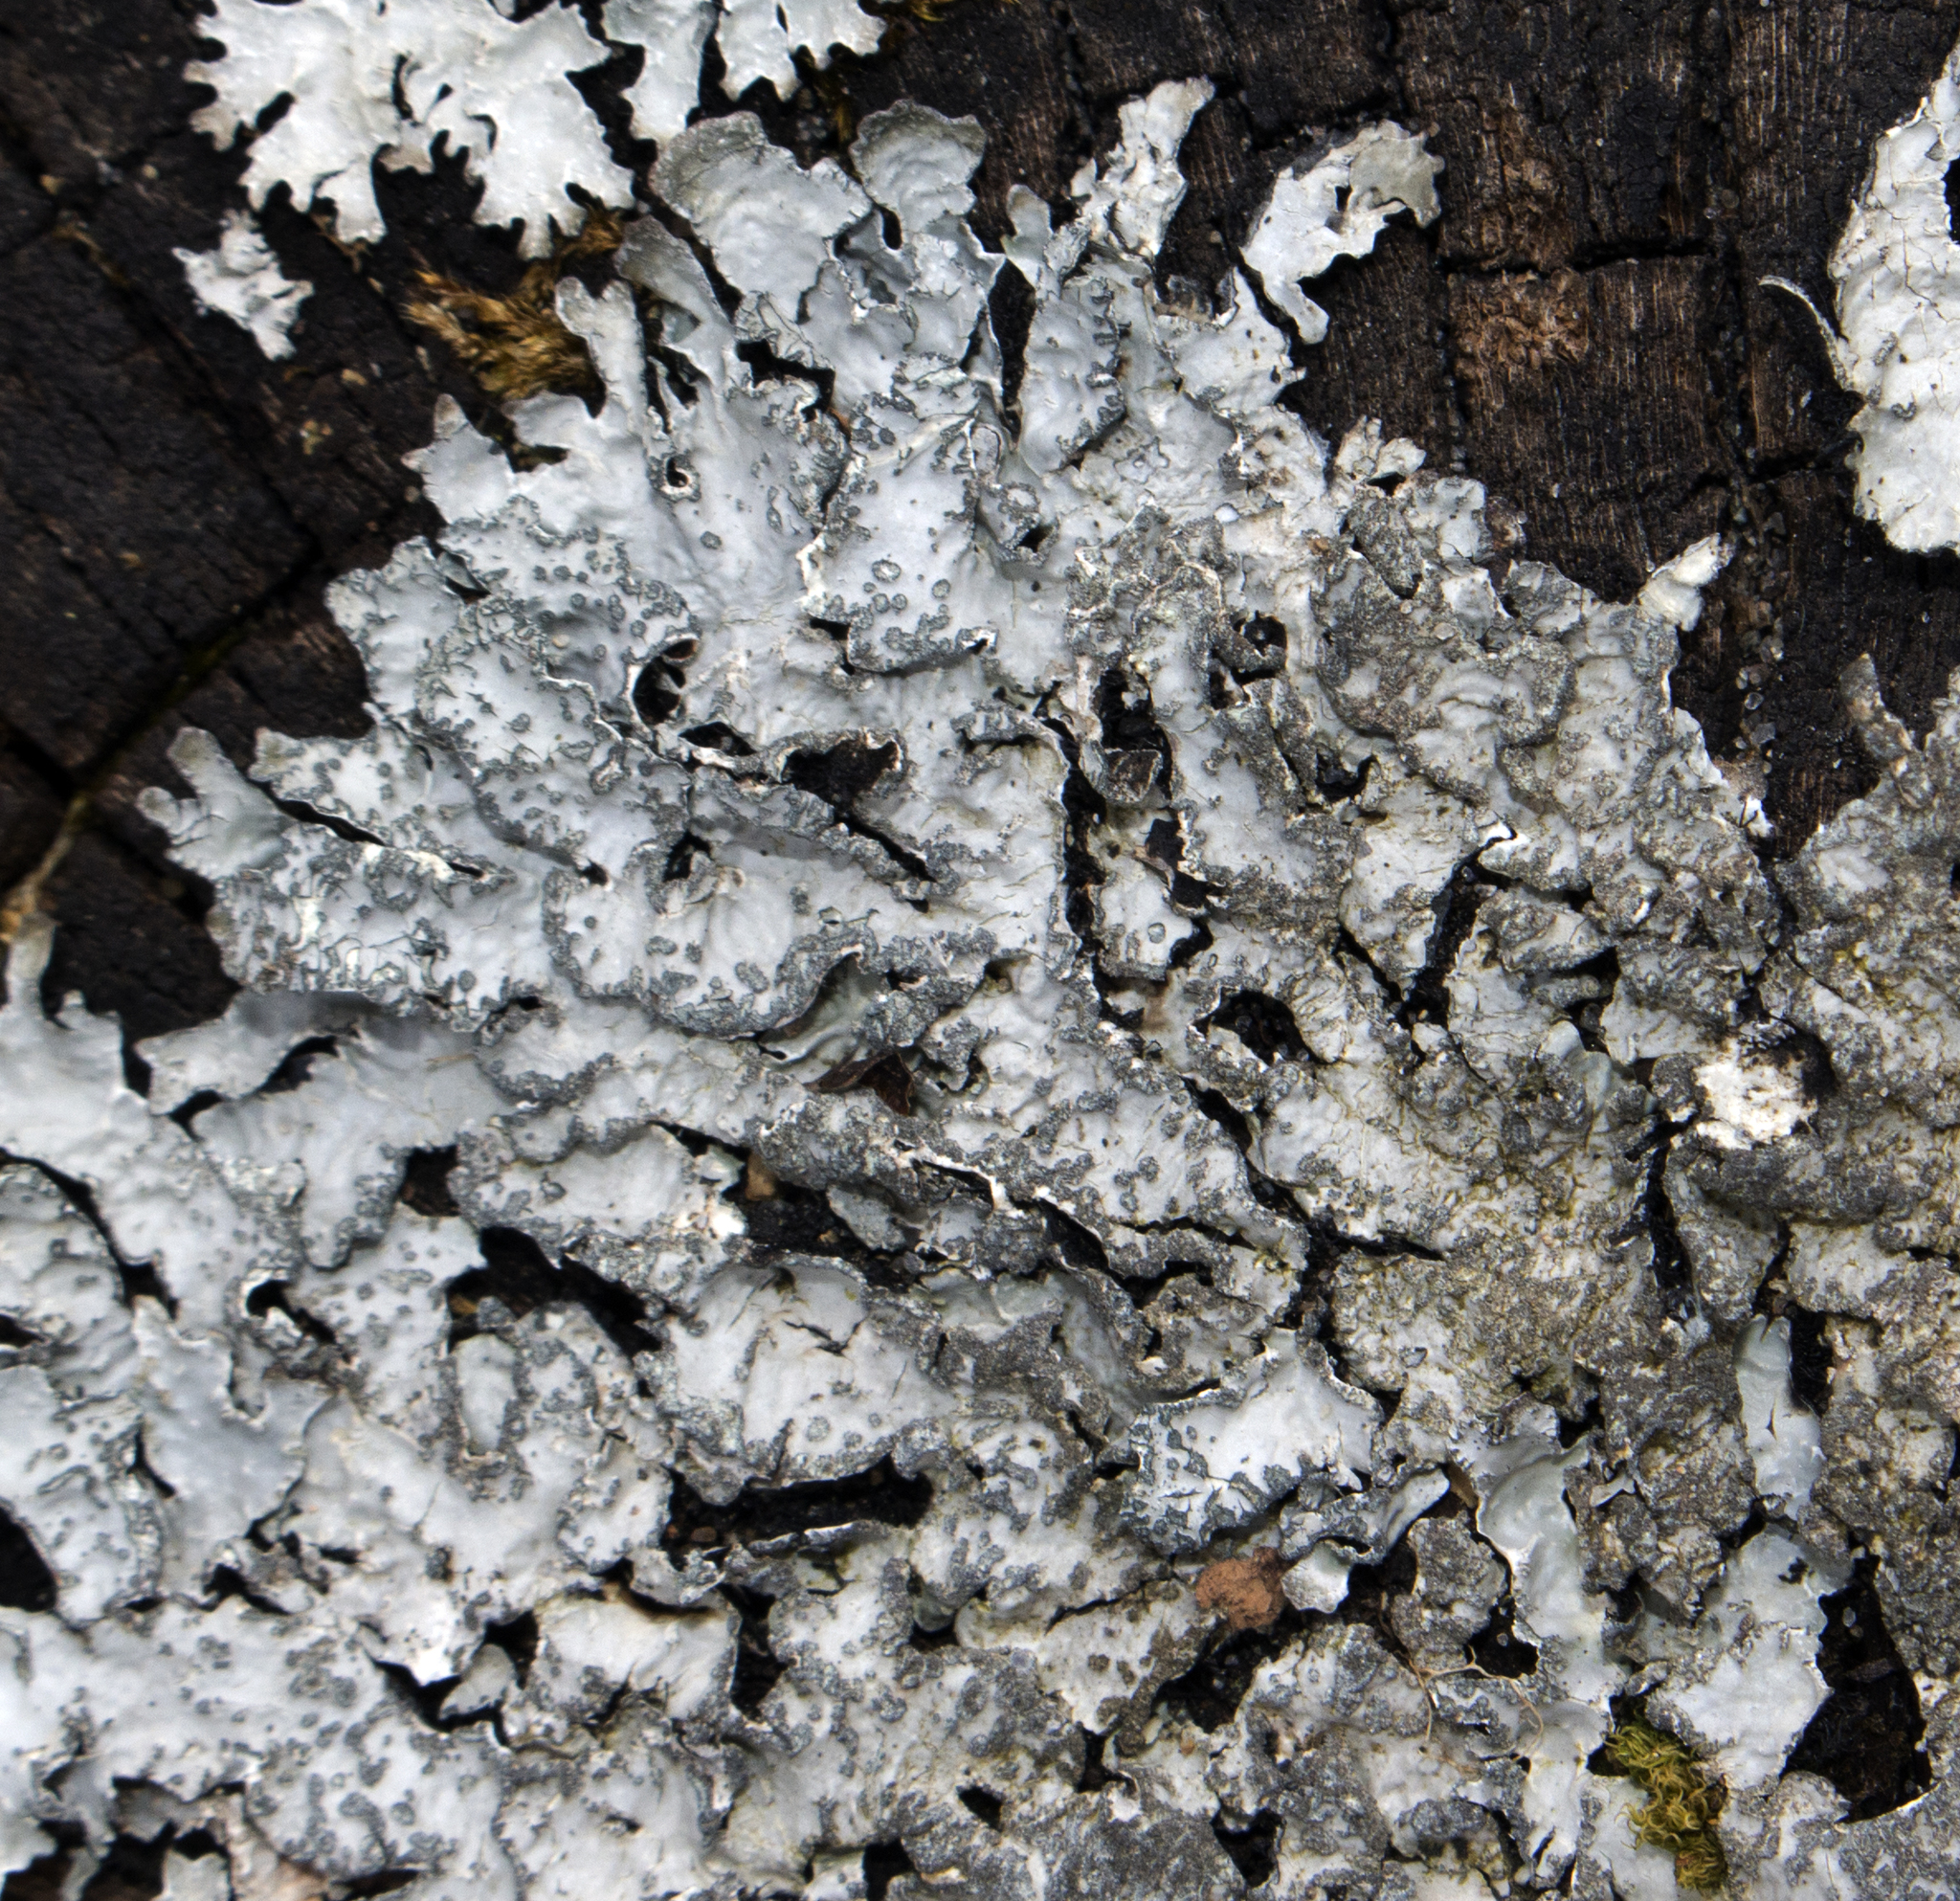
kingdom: Fungi
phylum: Ascomycota
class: Lecanoromycetes
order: Lecanorales
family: Parmeliaceae
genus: Parmelia
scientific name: Parmelia sulcata
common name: Netted shield lichen
